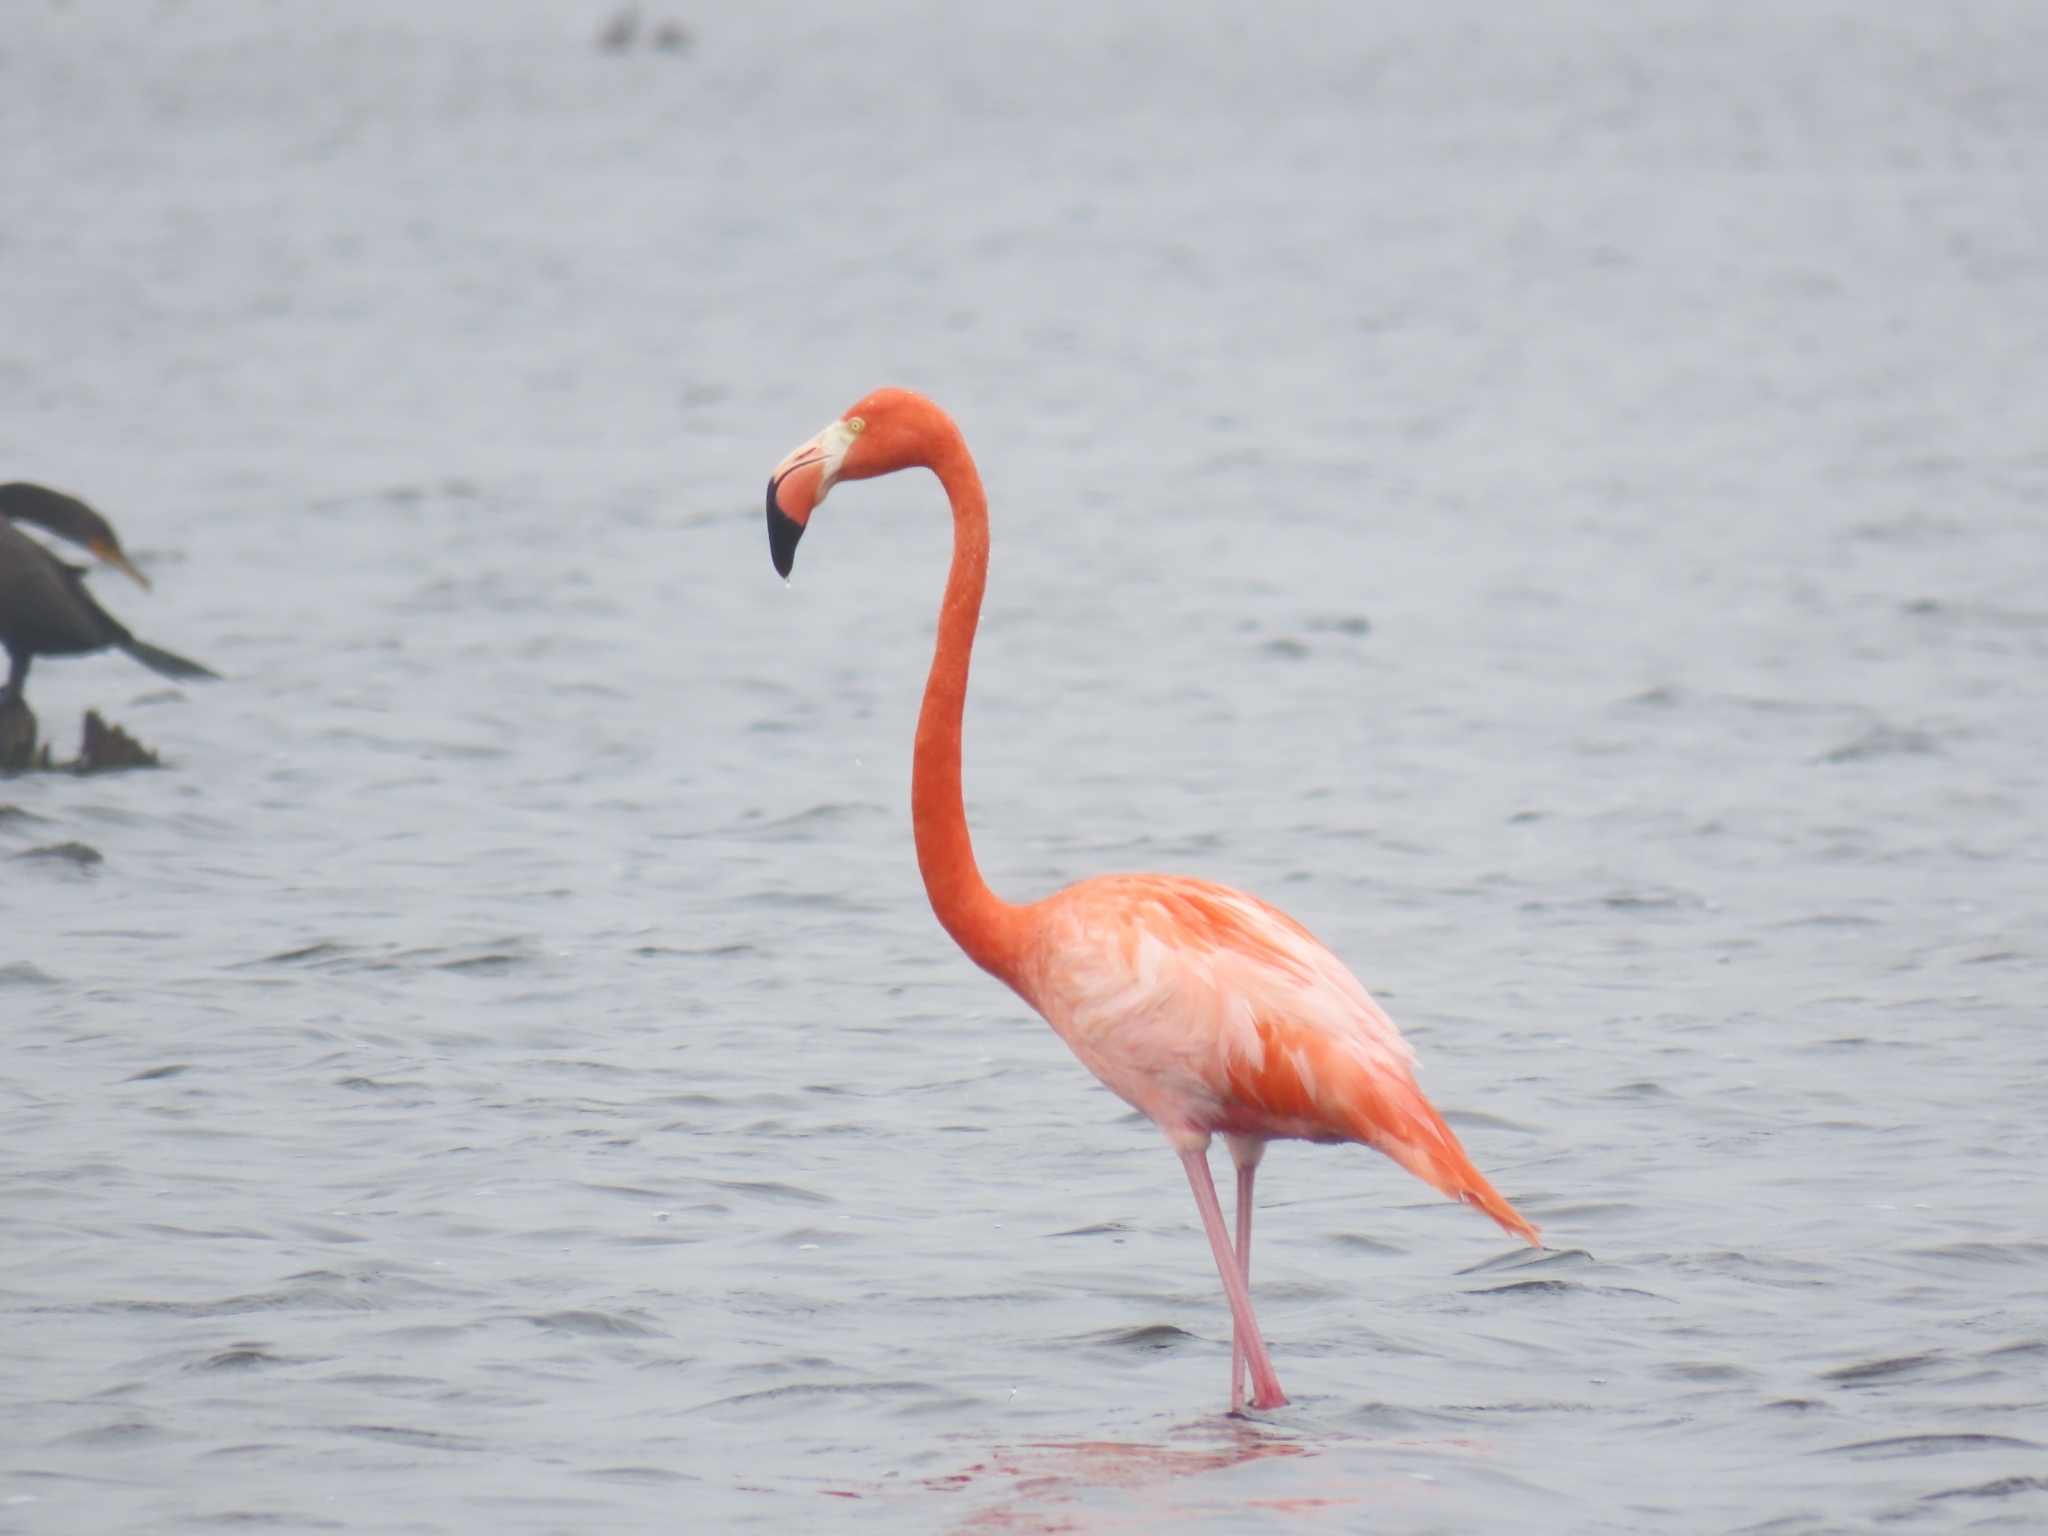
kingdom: Animalia
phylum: Chordata
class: Aves
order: Phoenicopteriformes
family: Phoenicopteridae
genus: Phoenicopterus
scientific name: Phoenicopterus ruber
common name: American flamingo
